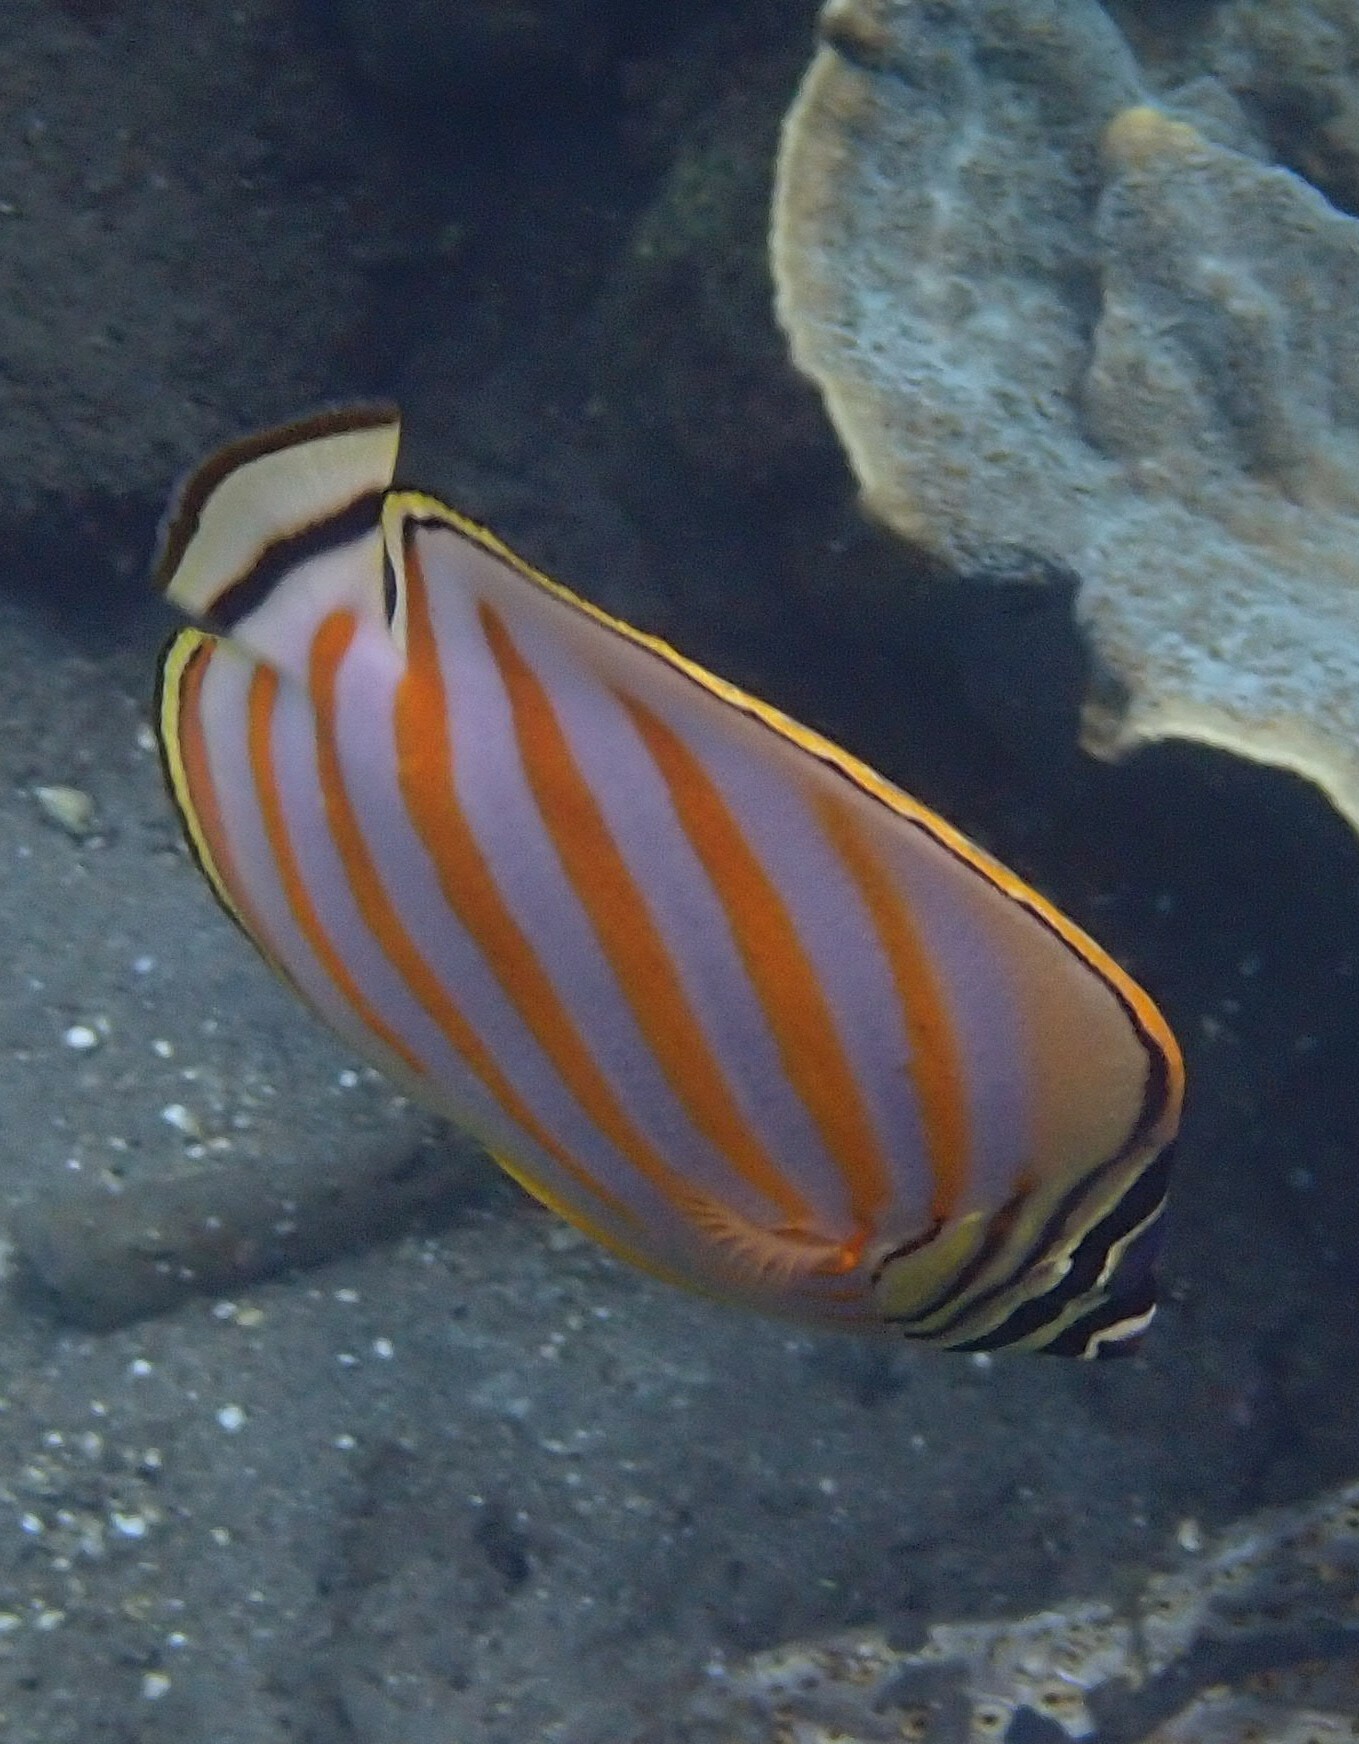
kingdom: Animalia
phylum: Chordata
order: Perciformes
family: Chaetodontidae
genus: Chaetodon
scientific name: Chaetodon ornatissimus
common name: Ornate butterflyfish
